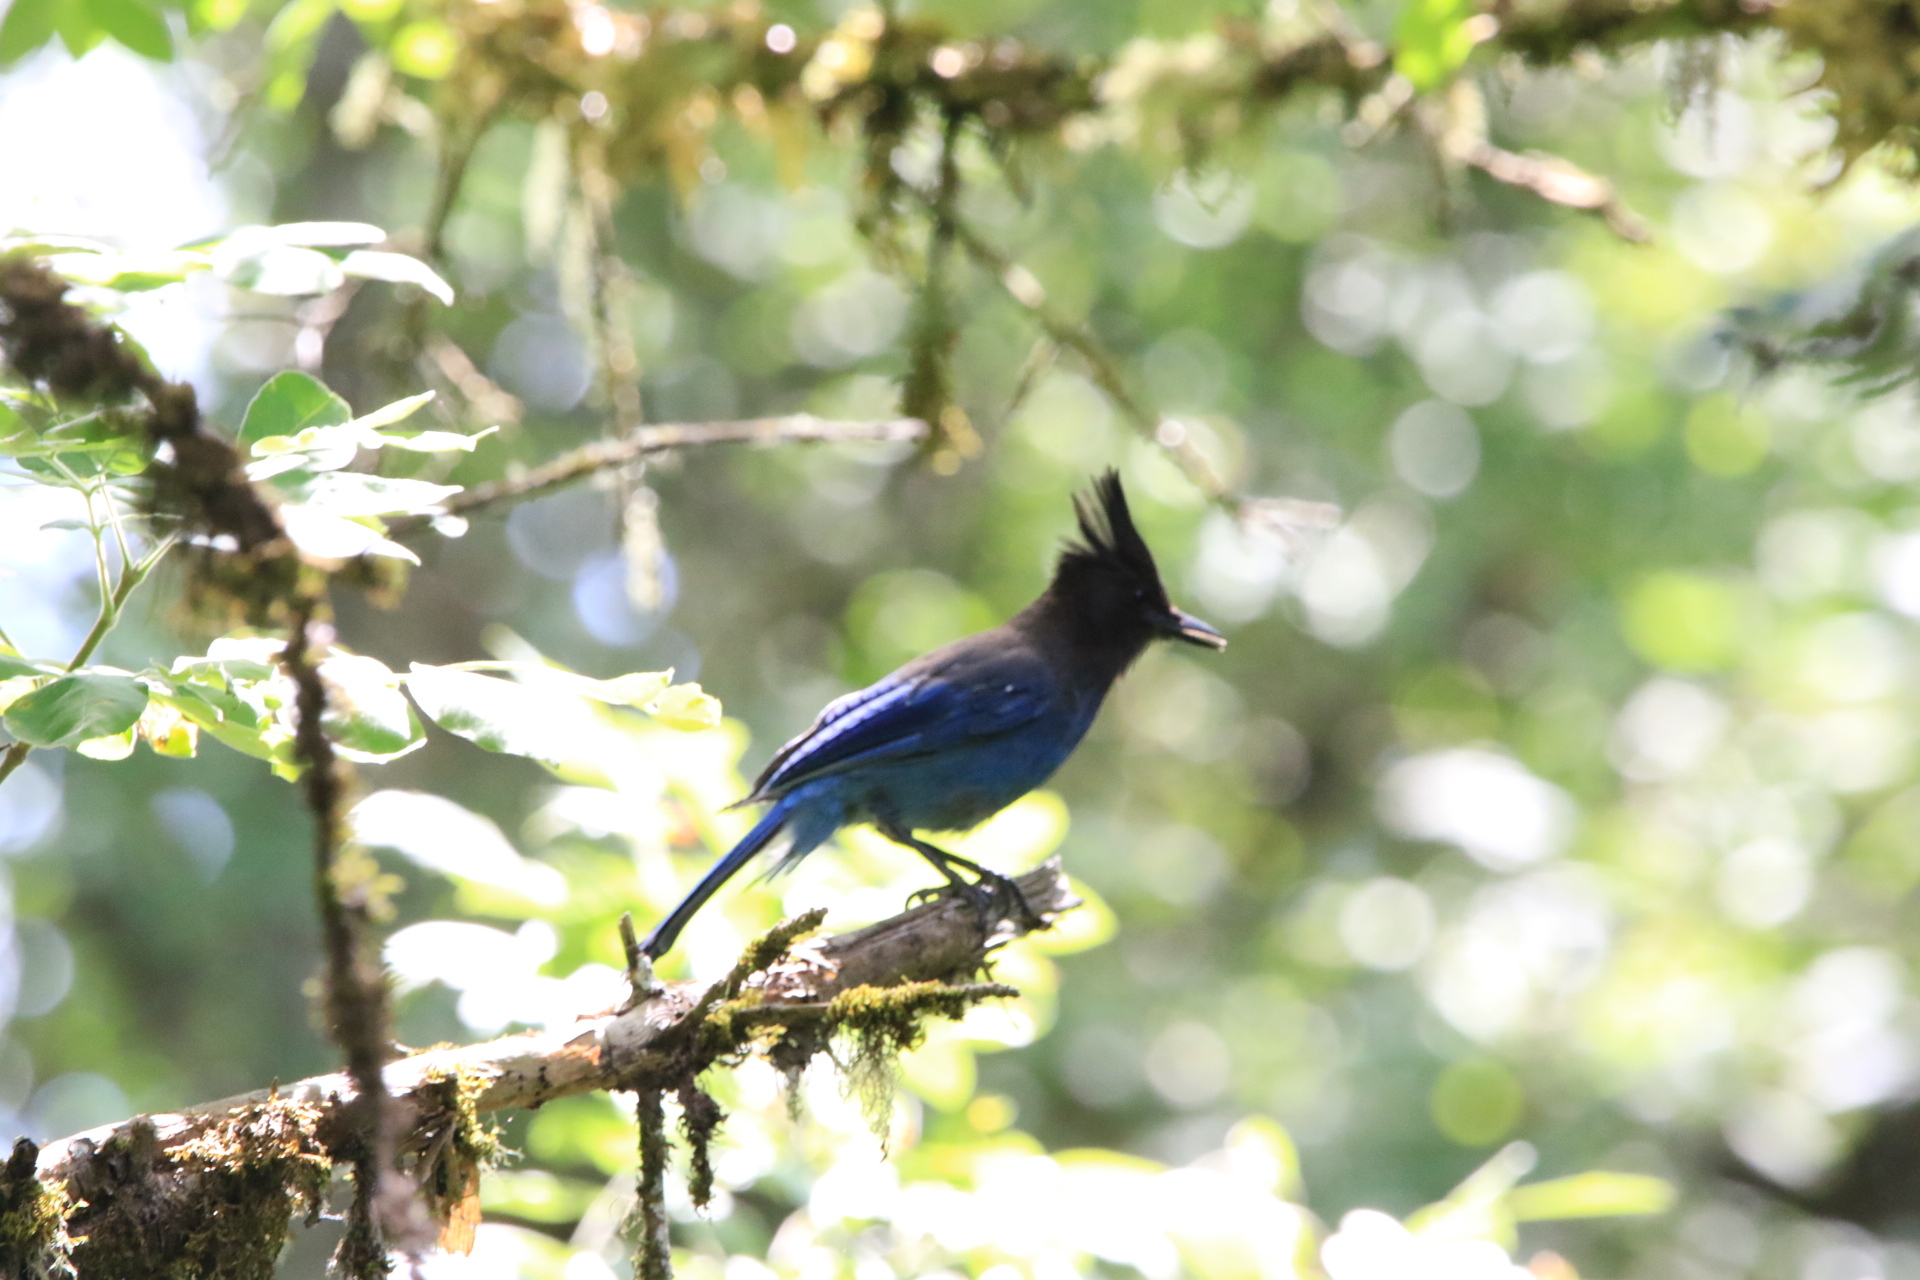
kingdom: Animalia
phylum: Chordata
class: Aves
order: Passeriformes
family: Corvidae
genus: Cyanocitta
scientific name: Cyanocitta stelleri
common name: Steller's jay
